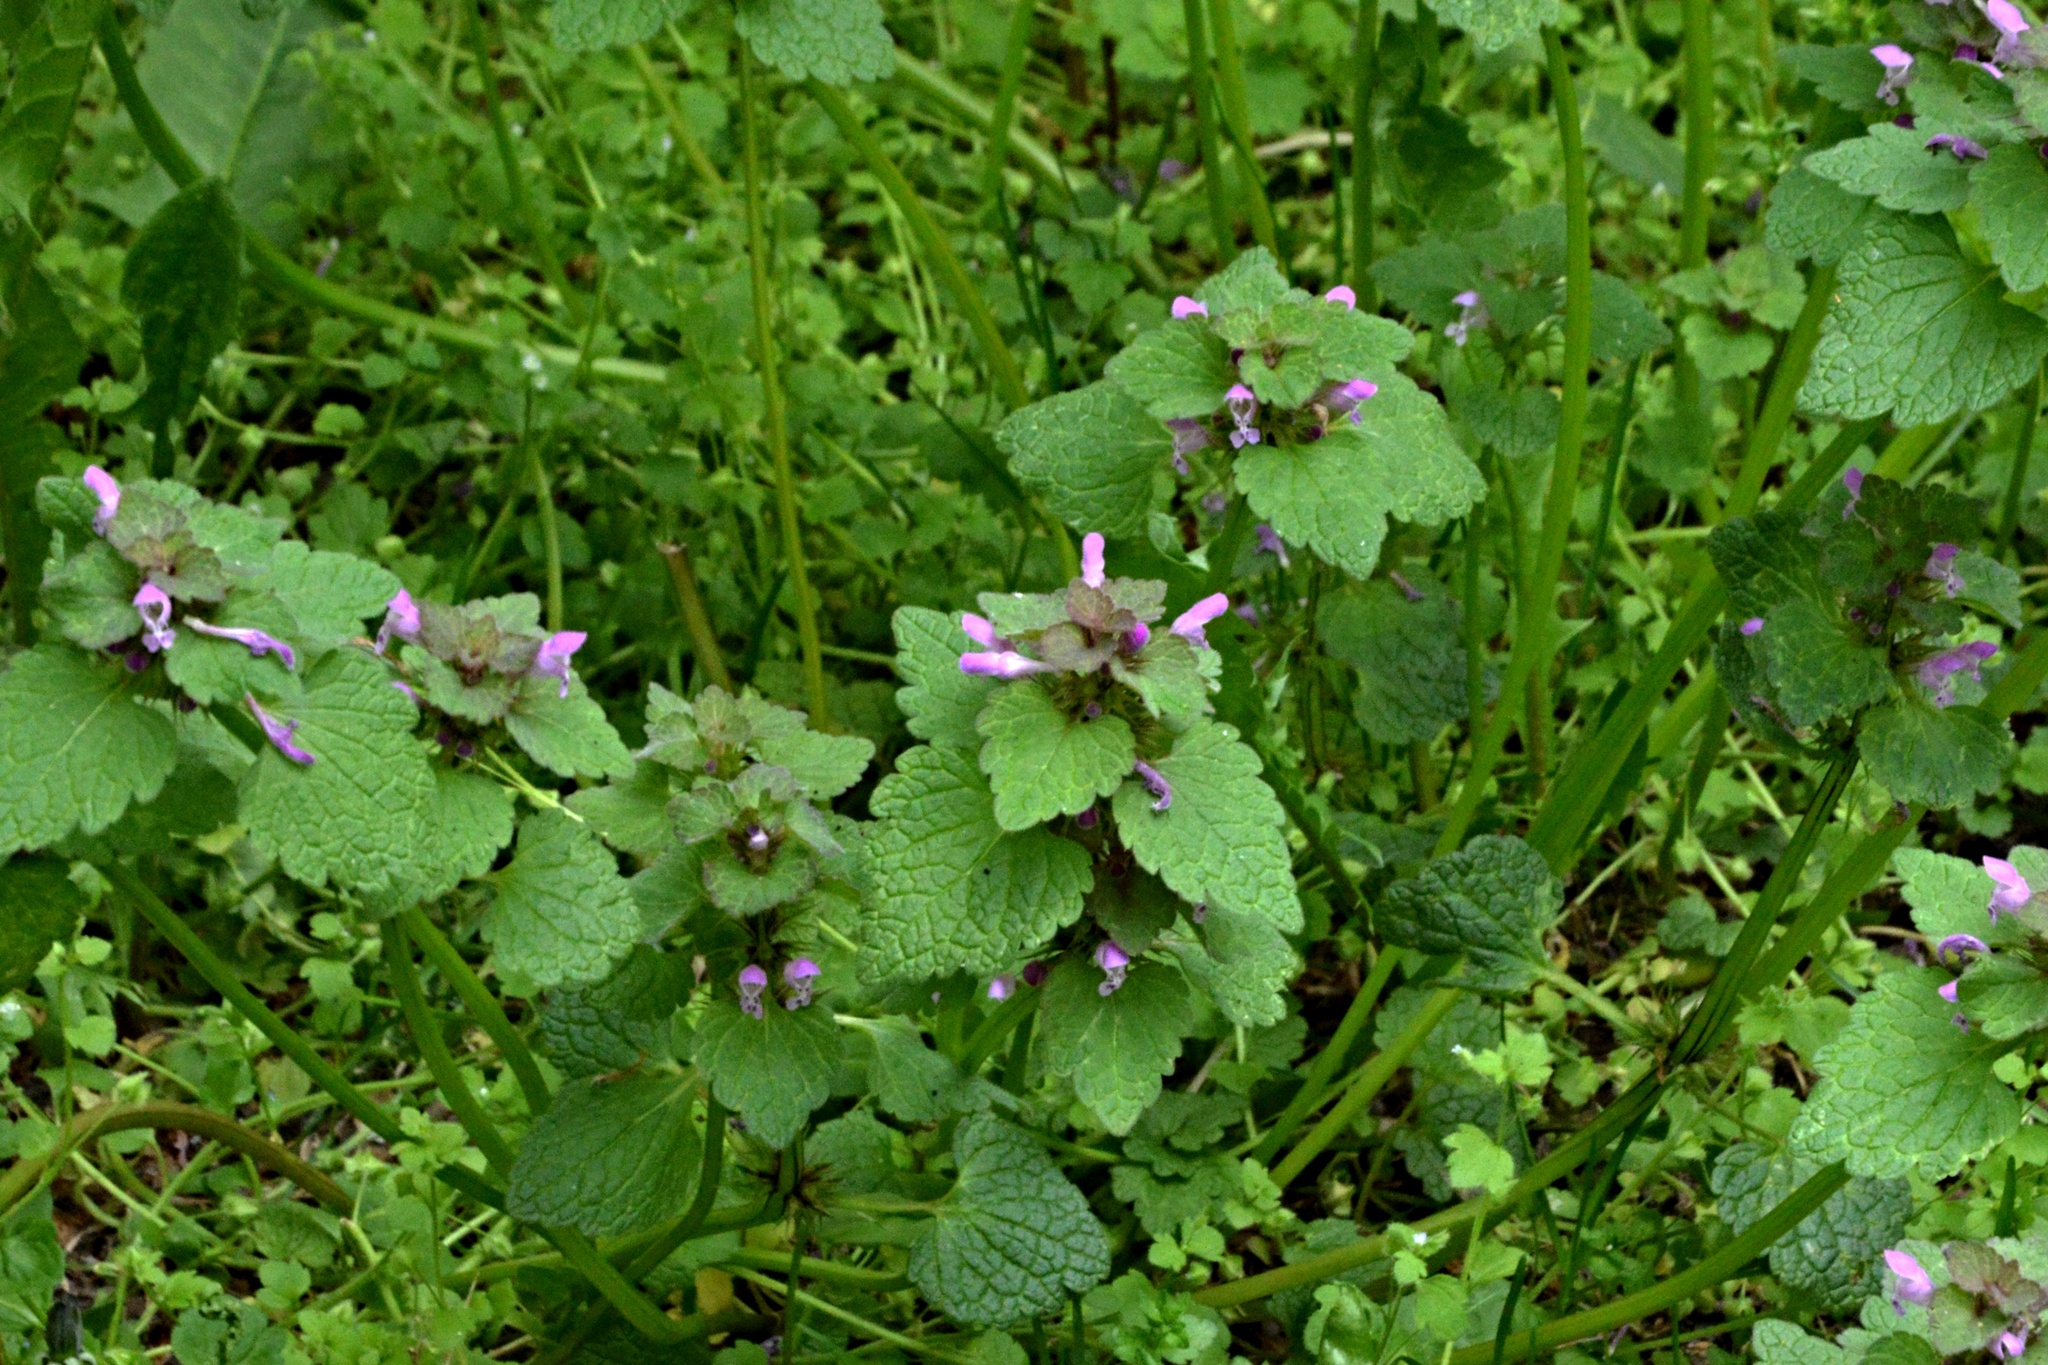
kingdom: Plantae
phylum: Tracheophyta
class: Magnoliopsida
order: Lamiales
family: Lamiaceae
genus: Lamium
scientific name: Lamium purpureum
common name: Red dead-nettle
